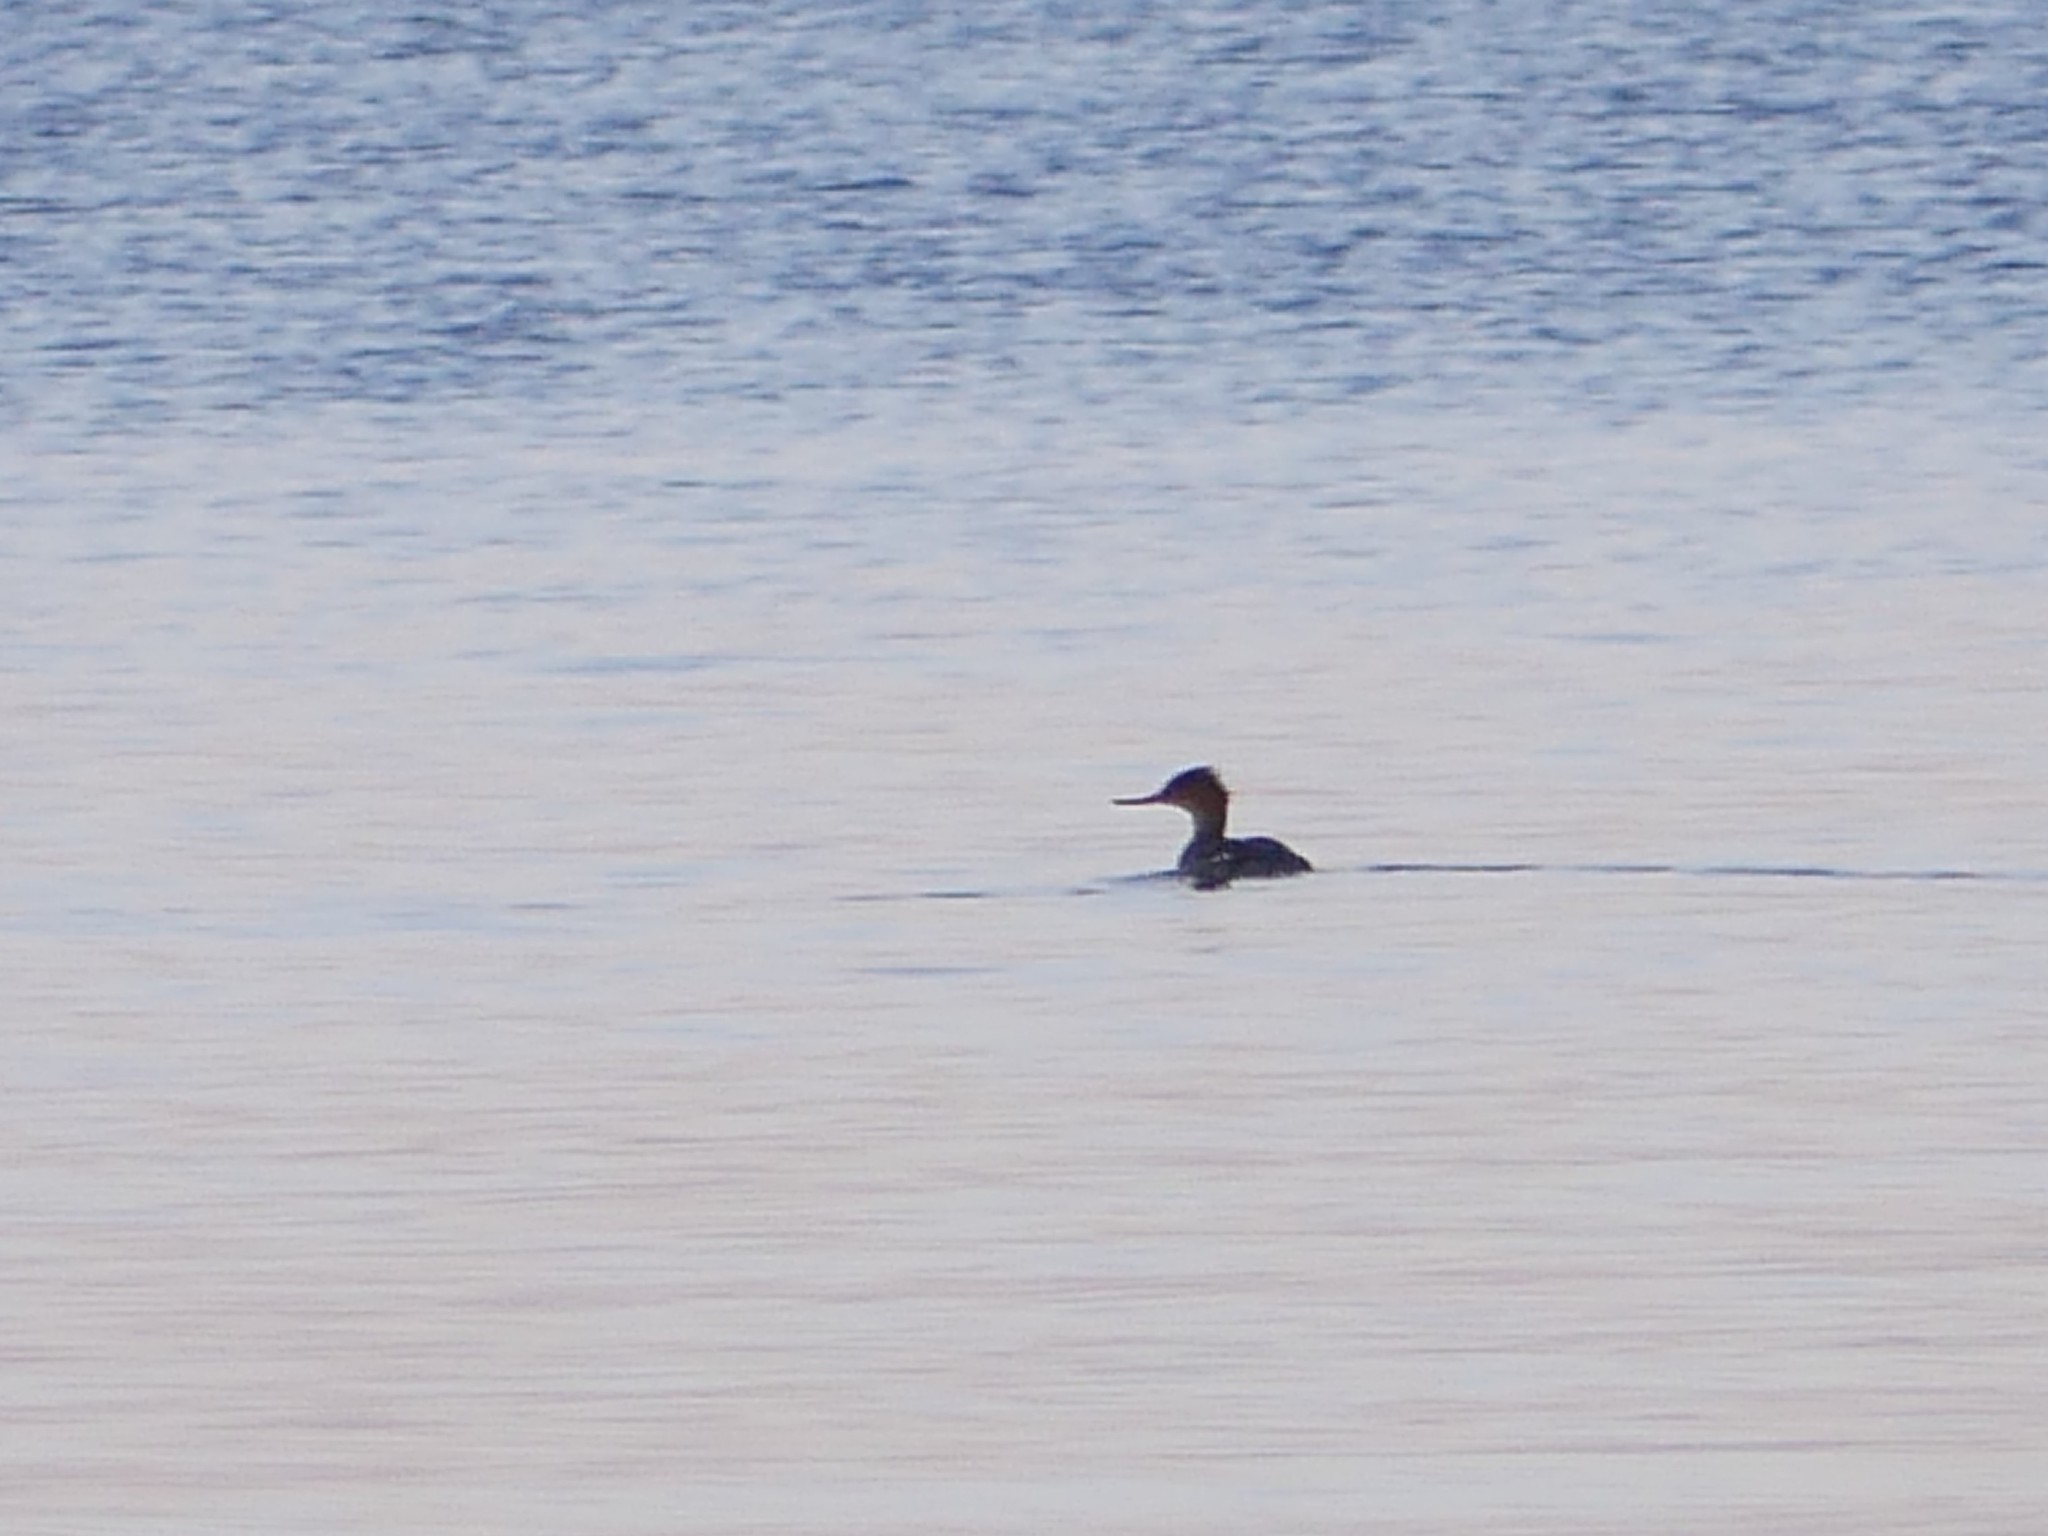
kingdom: Animalia
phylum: Chordata
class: Aves
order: Anseriformes
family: Anatidae
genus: Mergus
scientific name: Mergus serrator
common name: Red-breasted merganser
